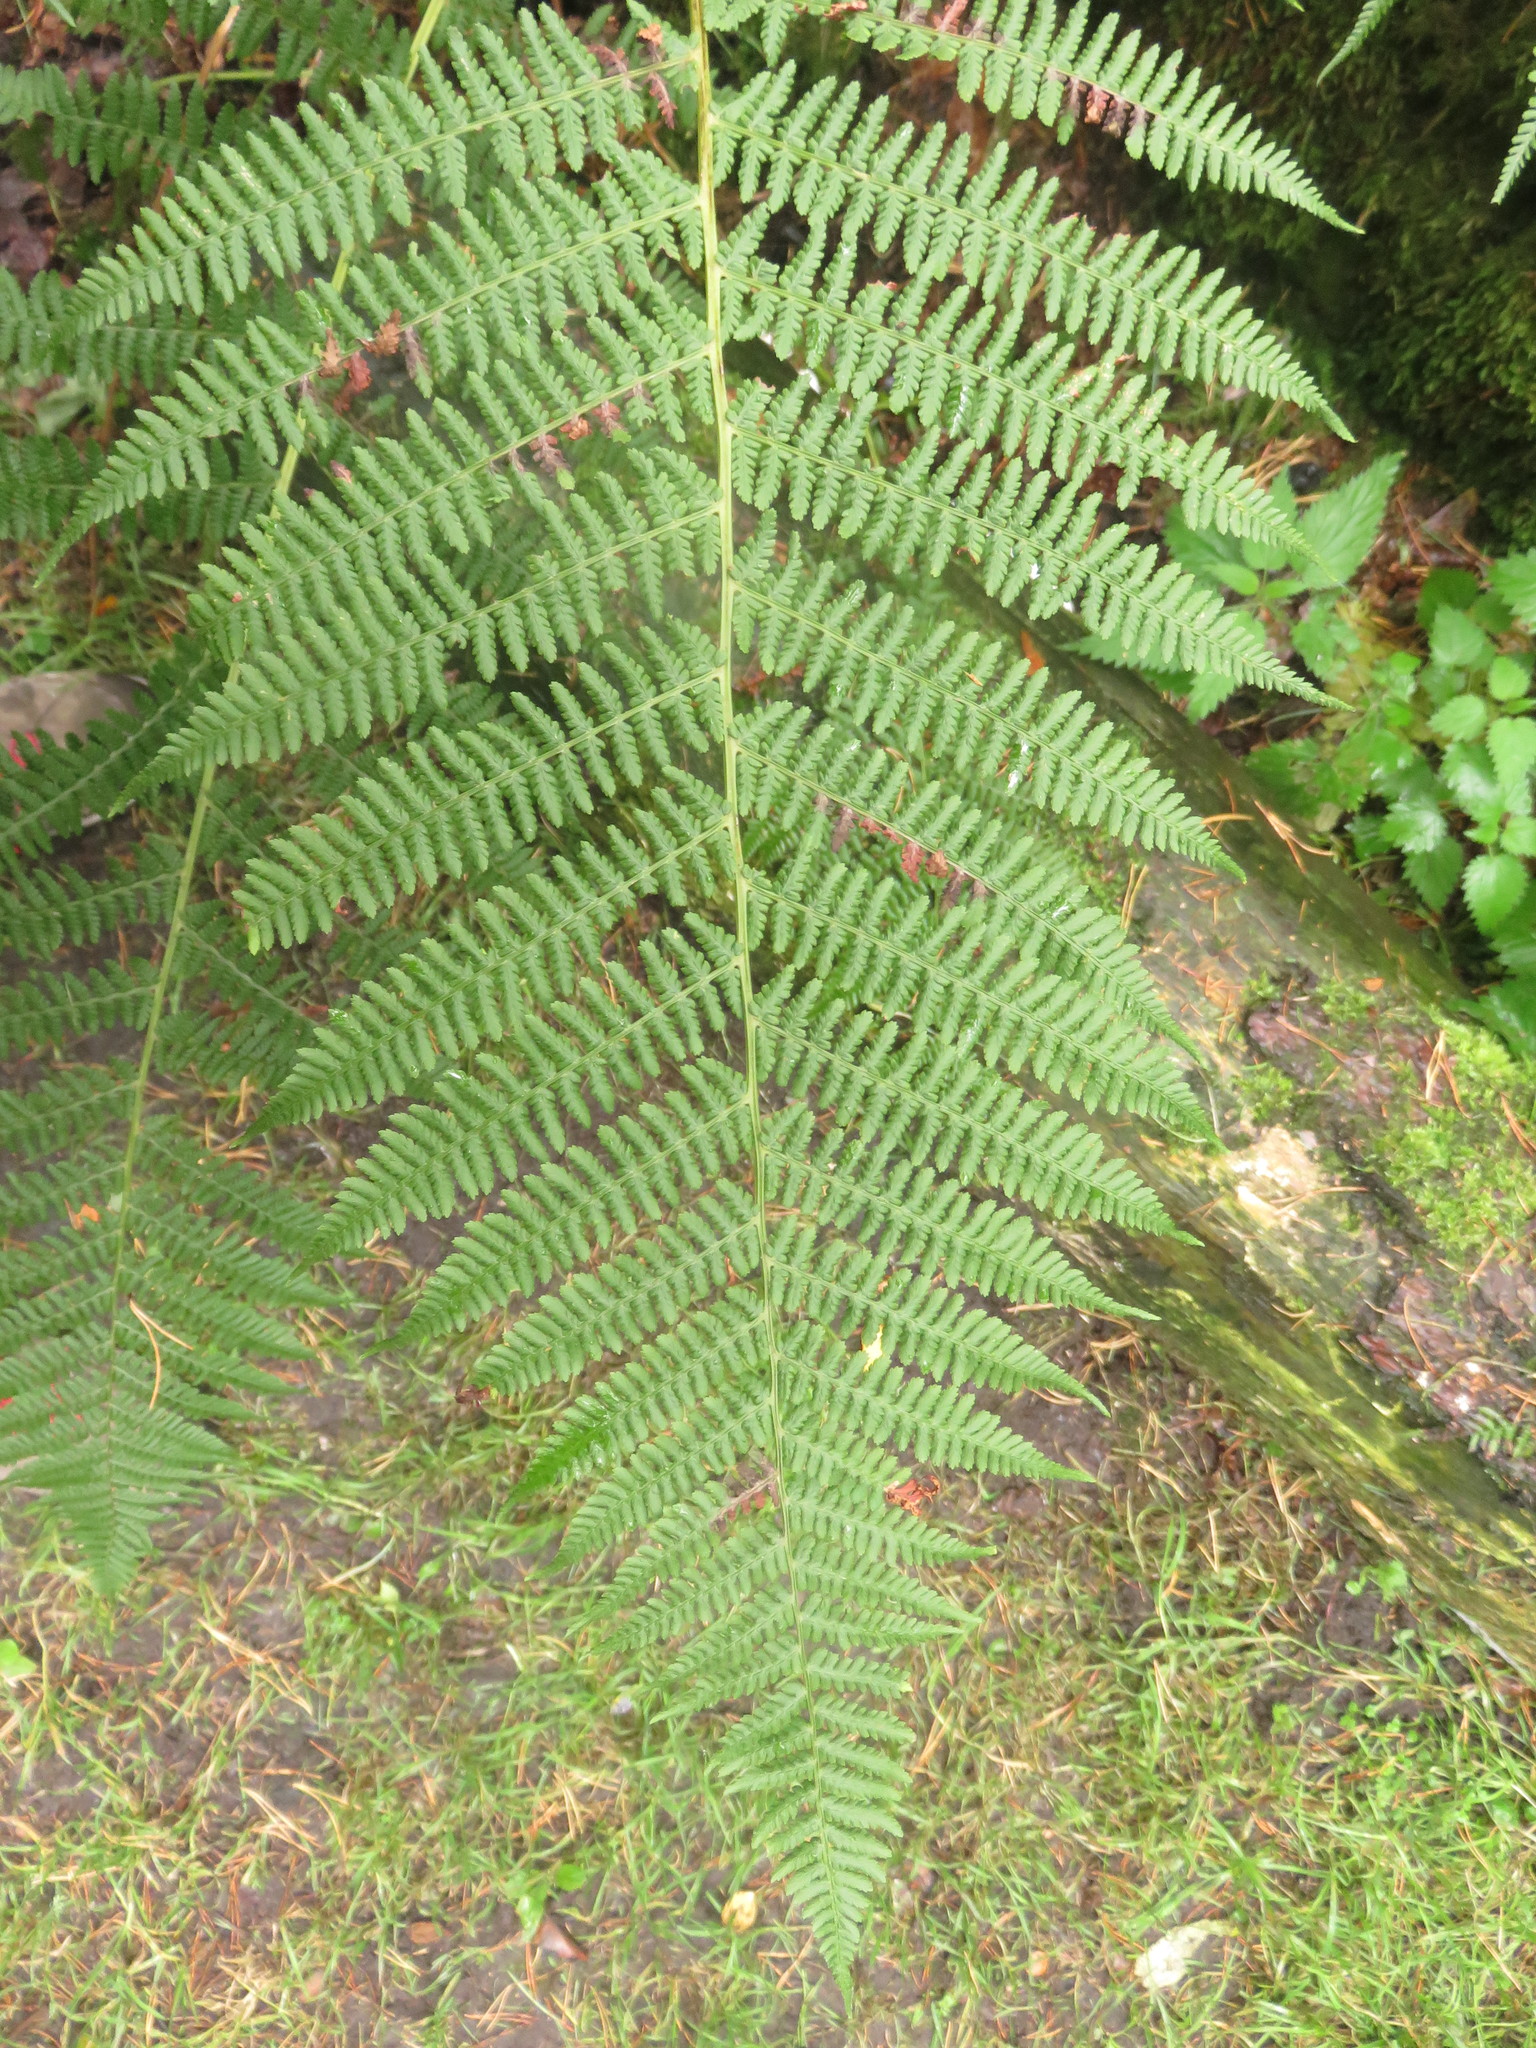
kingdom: Plantae
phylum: Tracheophyta
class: Polypodiopsida
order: Polypodiales
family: Athyriaceae
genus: Athyrium
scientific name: Athyrium filix-femina
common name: Lady fern
